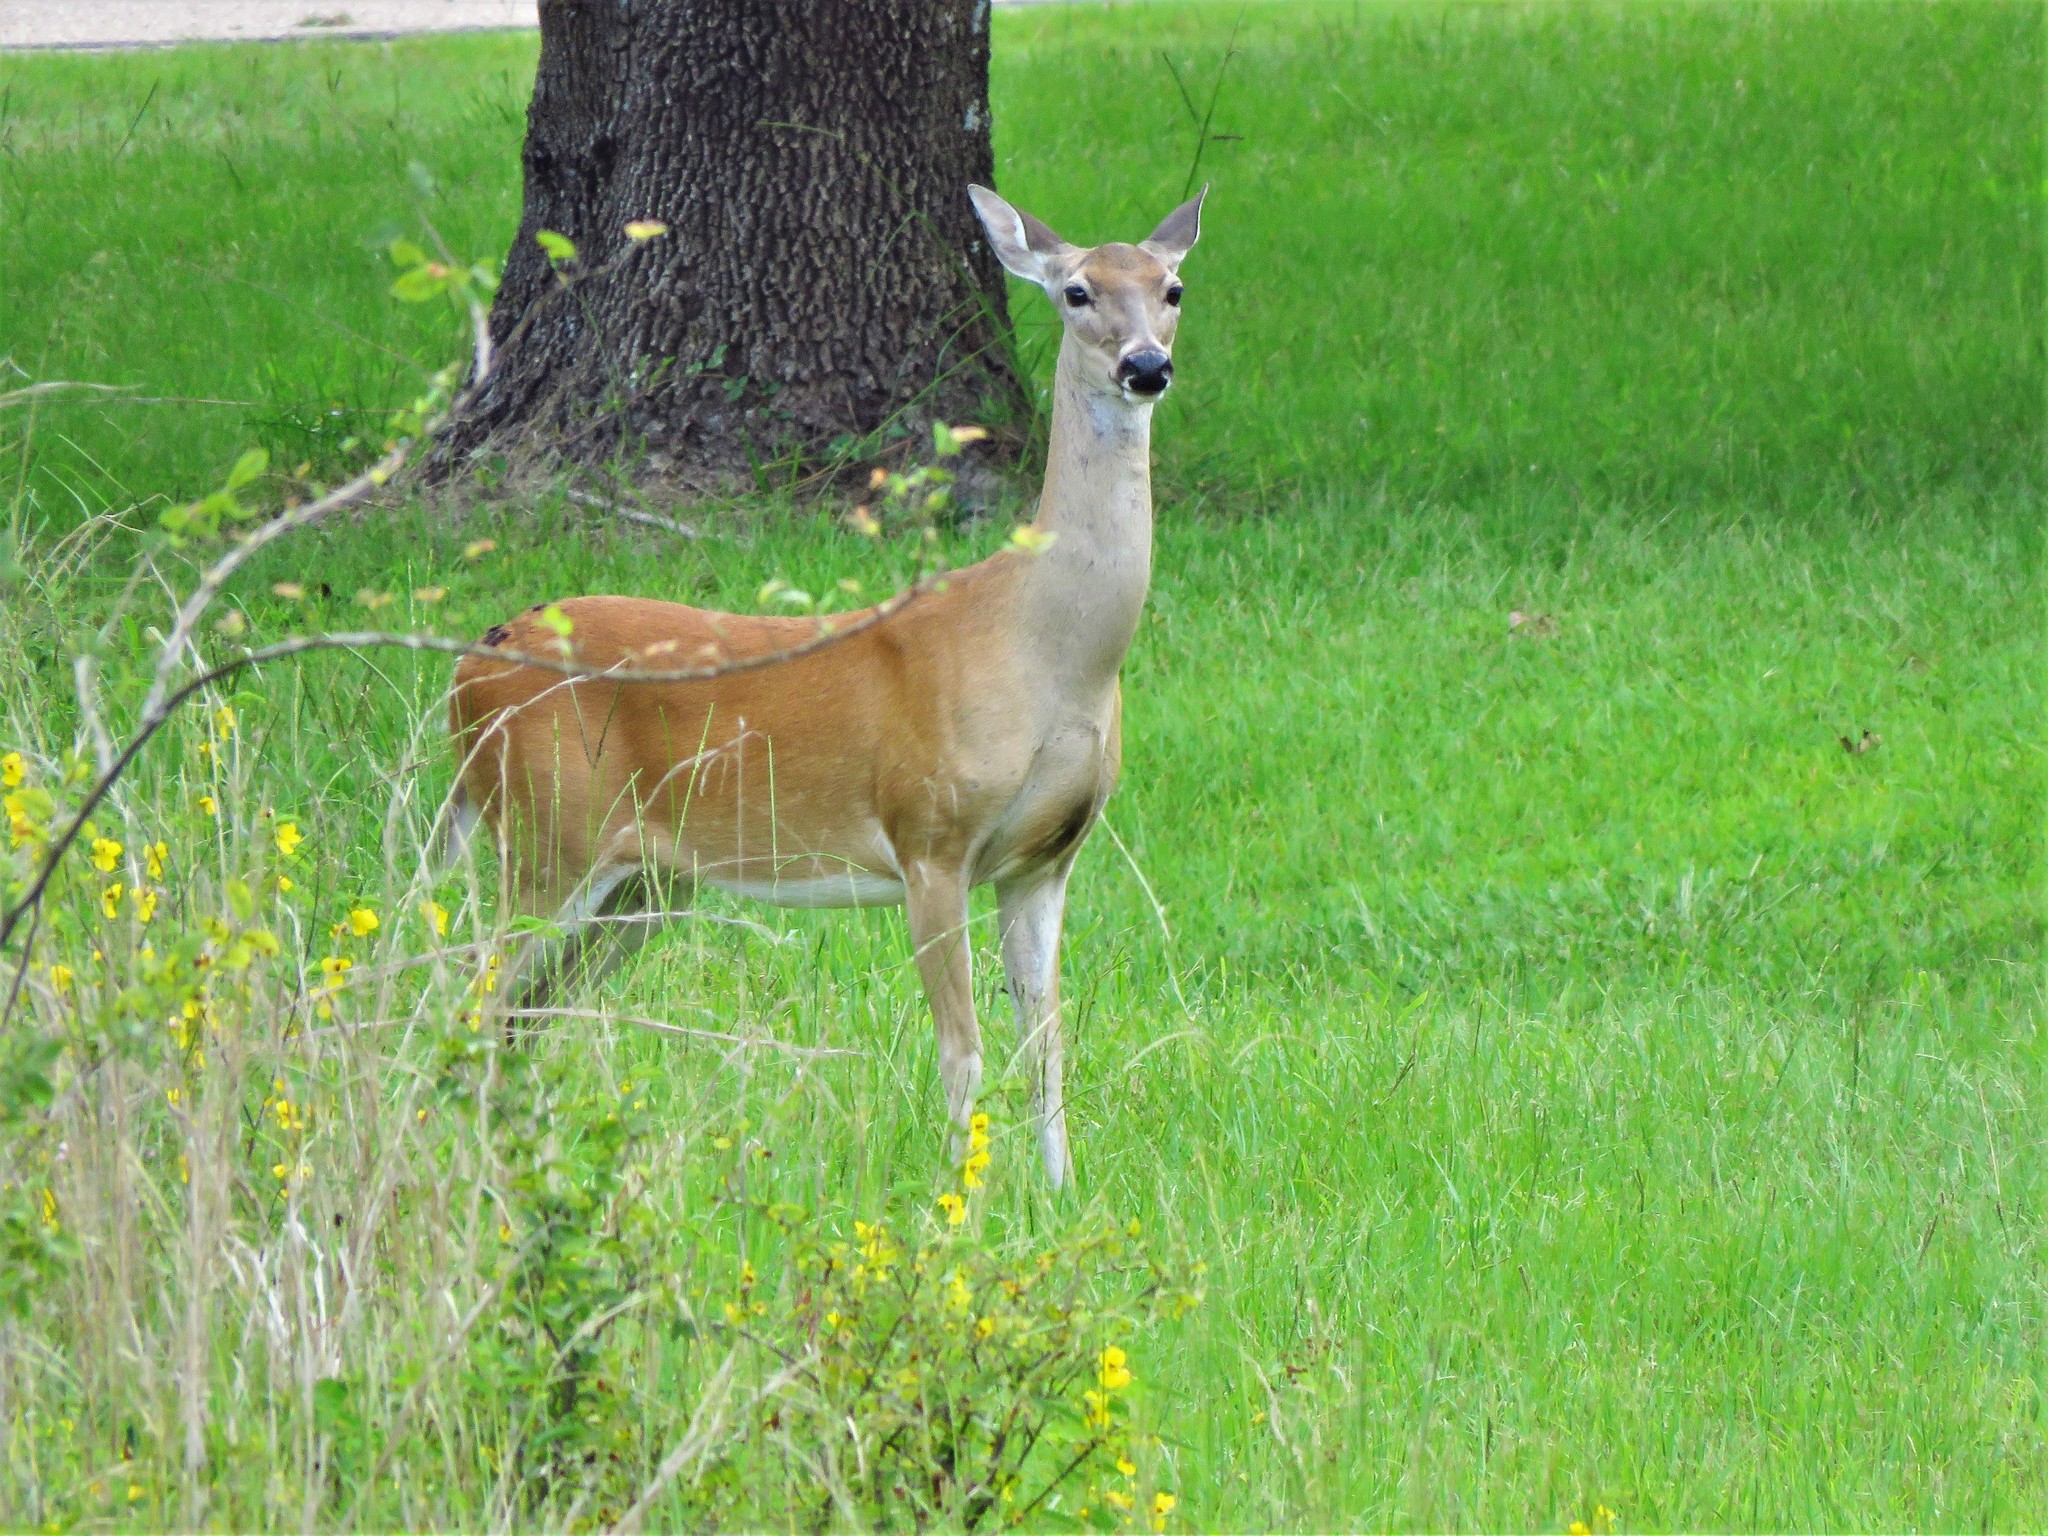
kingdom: Animalia
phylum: Chordata
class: Mammalia
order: Artiodactyla
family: Cervidae
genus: Odocoileus
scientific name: Odocoileus virginianus
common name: White-tailed deer
